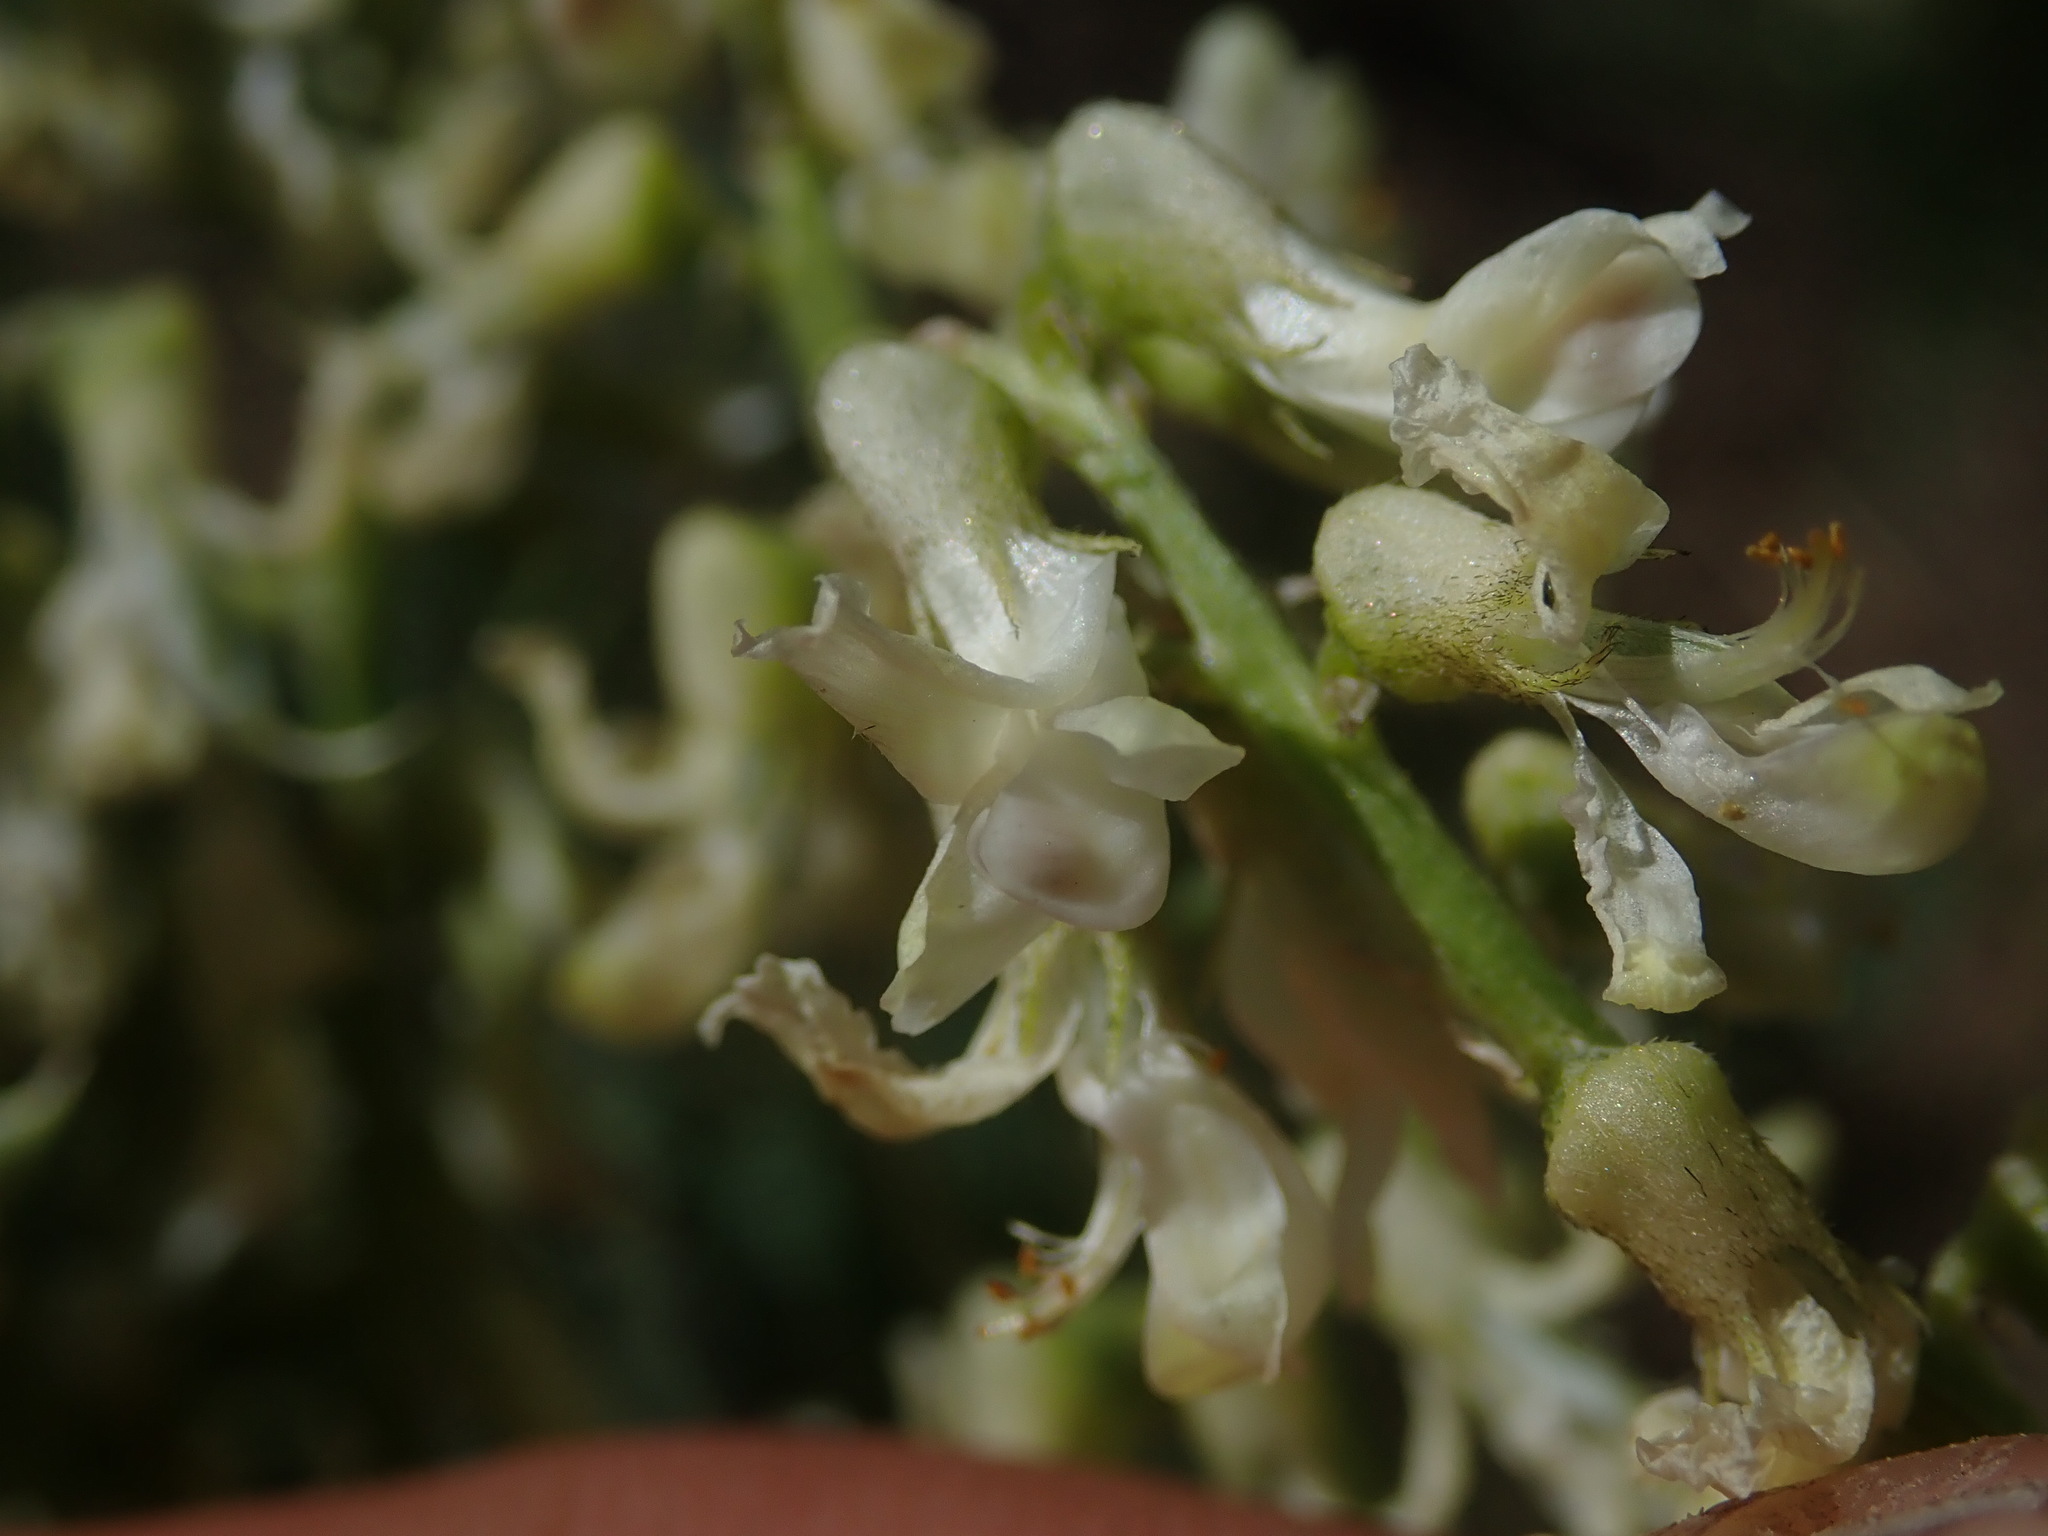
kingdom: Plantae
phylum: Tracheophyta
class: Magnoliopsida
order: Fabales
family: Fabaceae
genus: Astragalus
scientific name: Astragalus bisulcatus
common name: Two-groove milk-vetch
